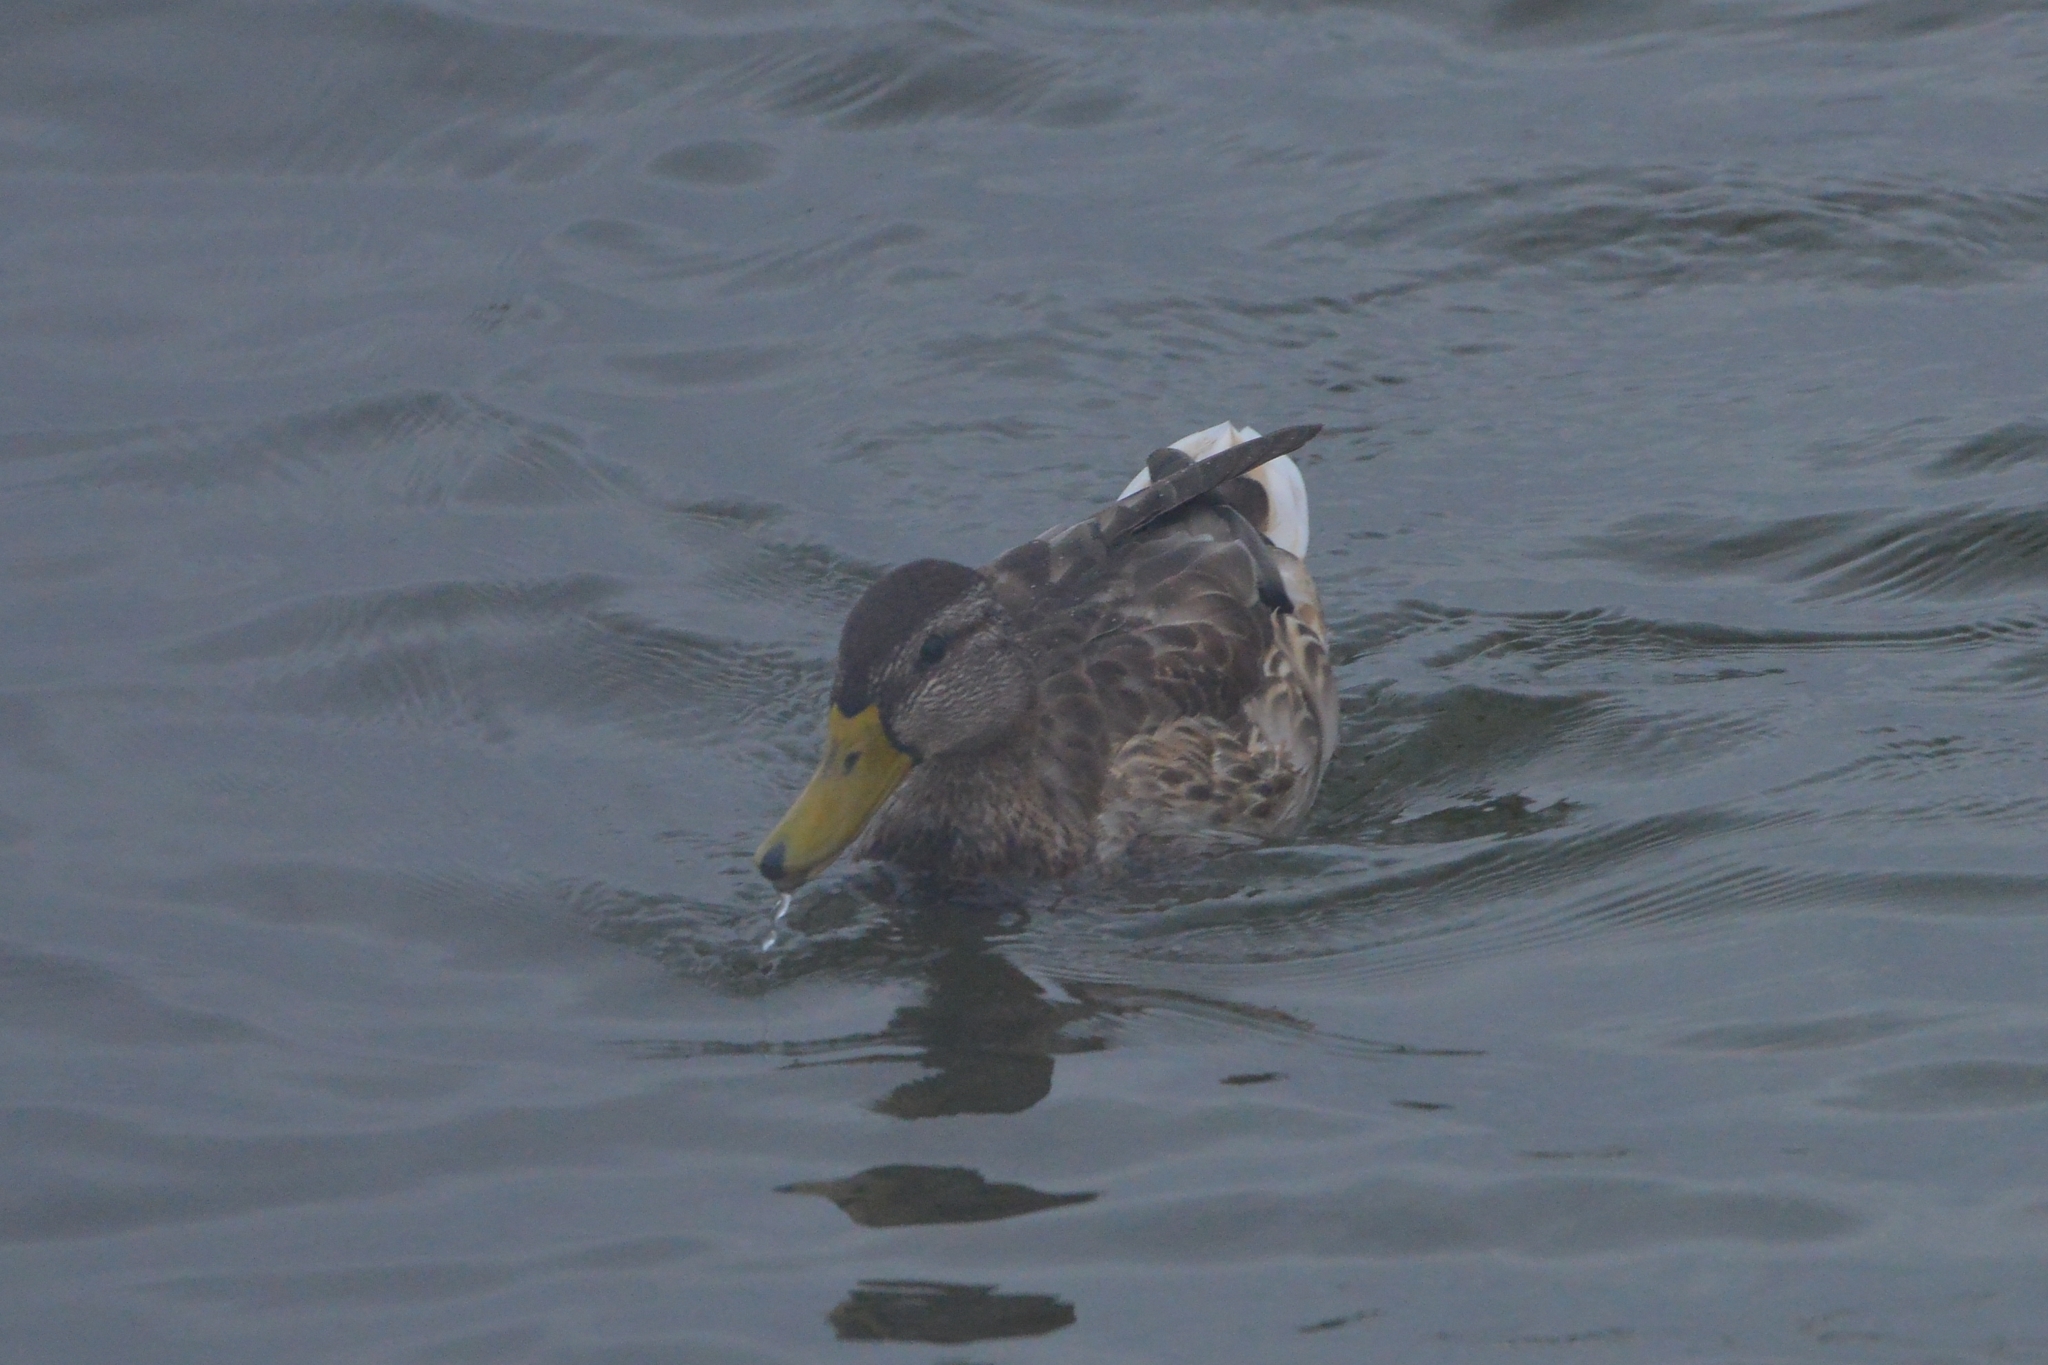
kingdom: Animalia
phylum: Chordata
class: Aves
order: Anseriformes
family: Anatidae
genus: Anas
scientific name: Anas platyrhynchos
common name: Mallard
